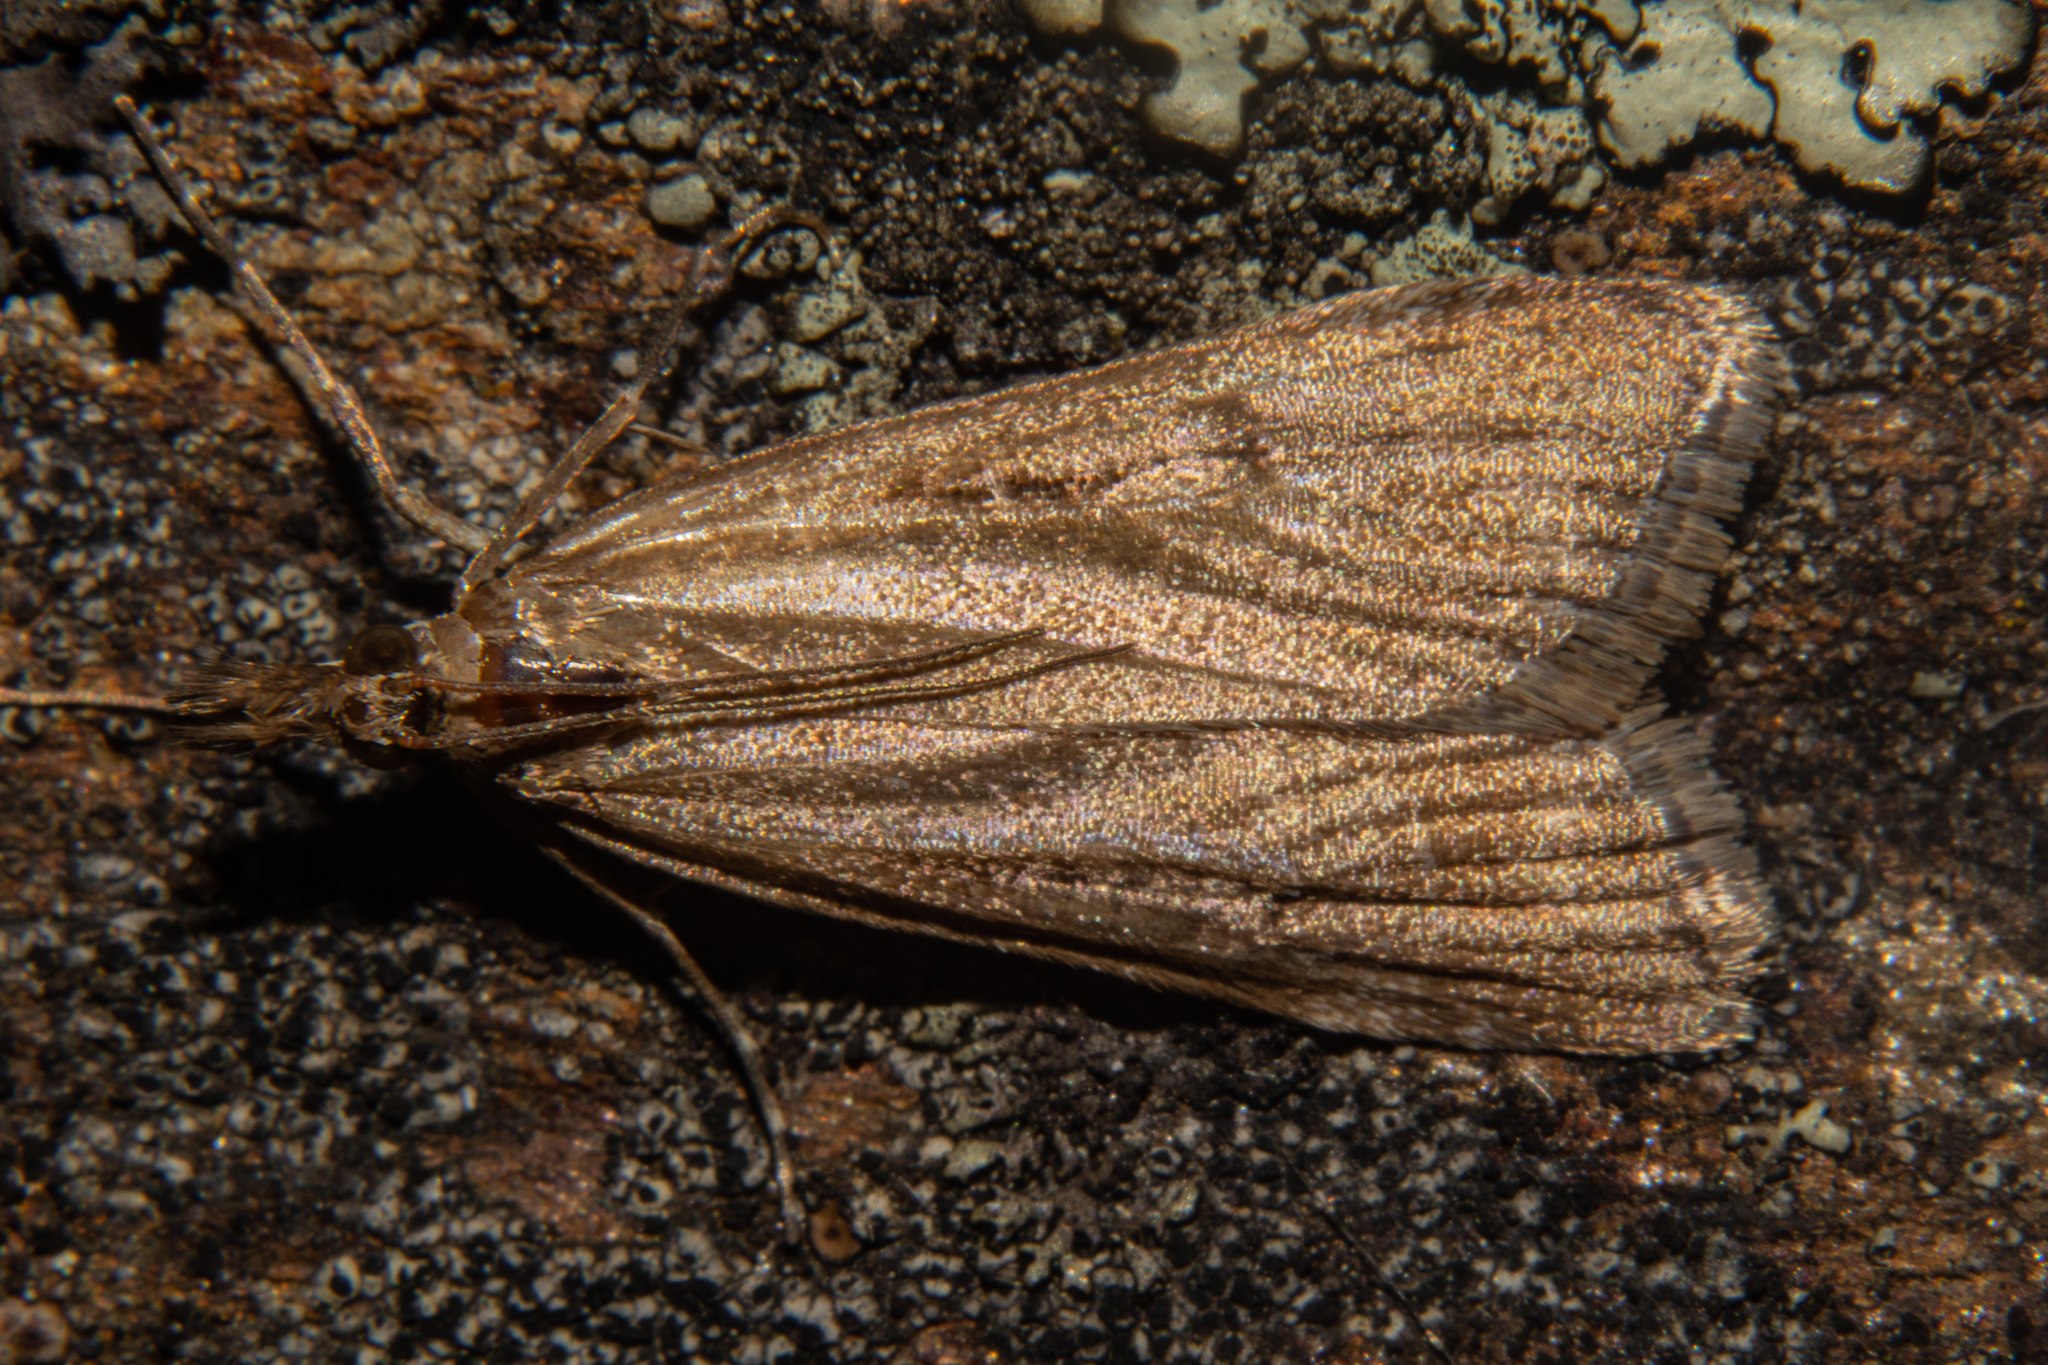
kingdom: Animalia
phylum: Arthropoda
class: Insecta
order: Lepidoptera
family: Crambidae
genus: Achyra
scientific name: Achyra affinitalis
